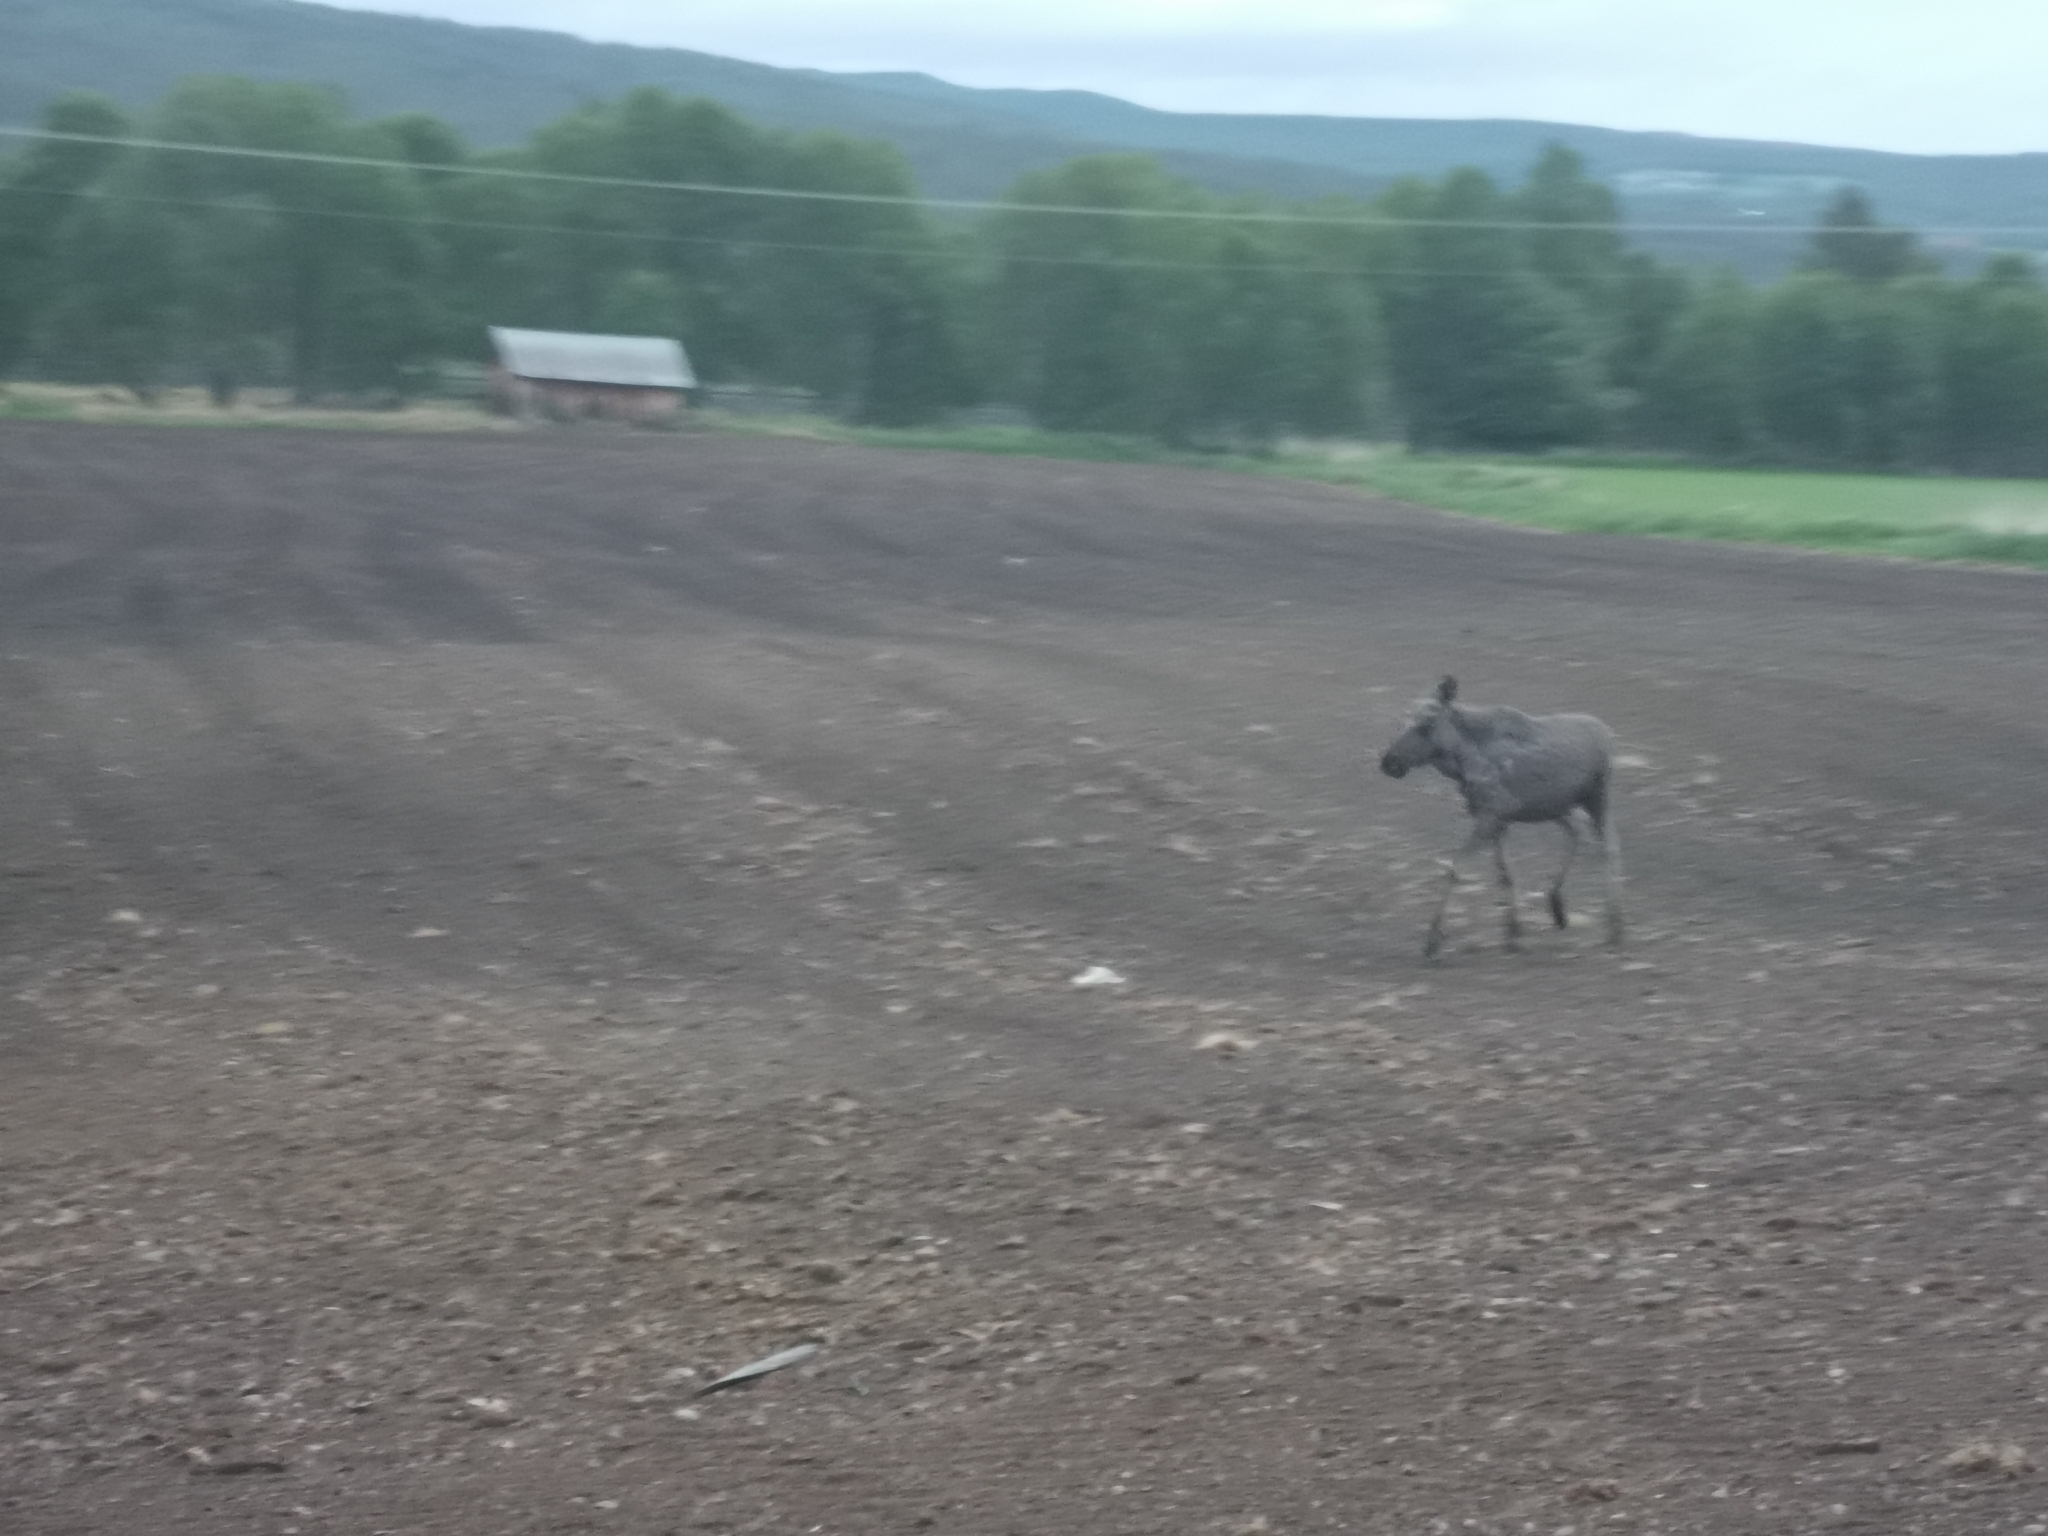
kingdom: Animalia
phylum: Chordata
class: Mammalia
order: Artiodactyla
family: Cervidae
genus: Alces
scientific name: Alces alces
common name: Moose
